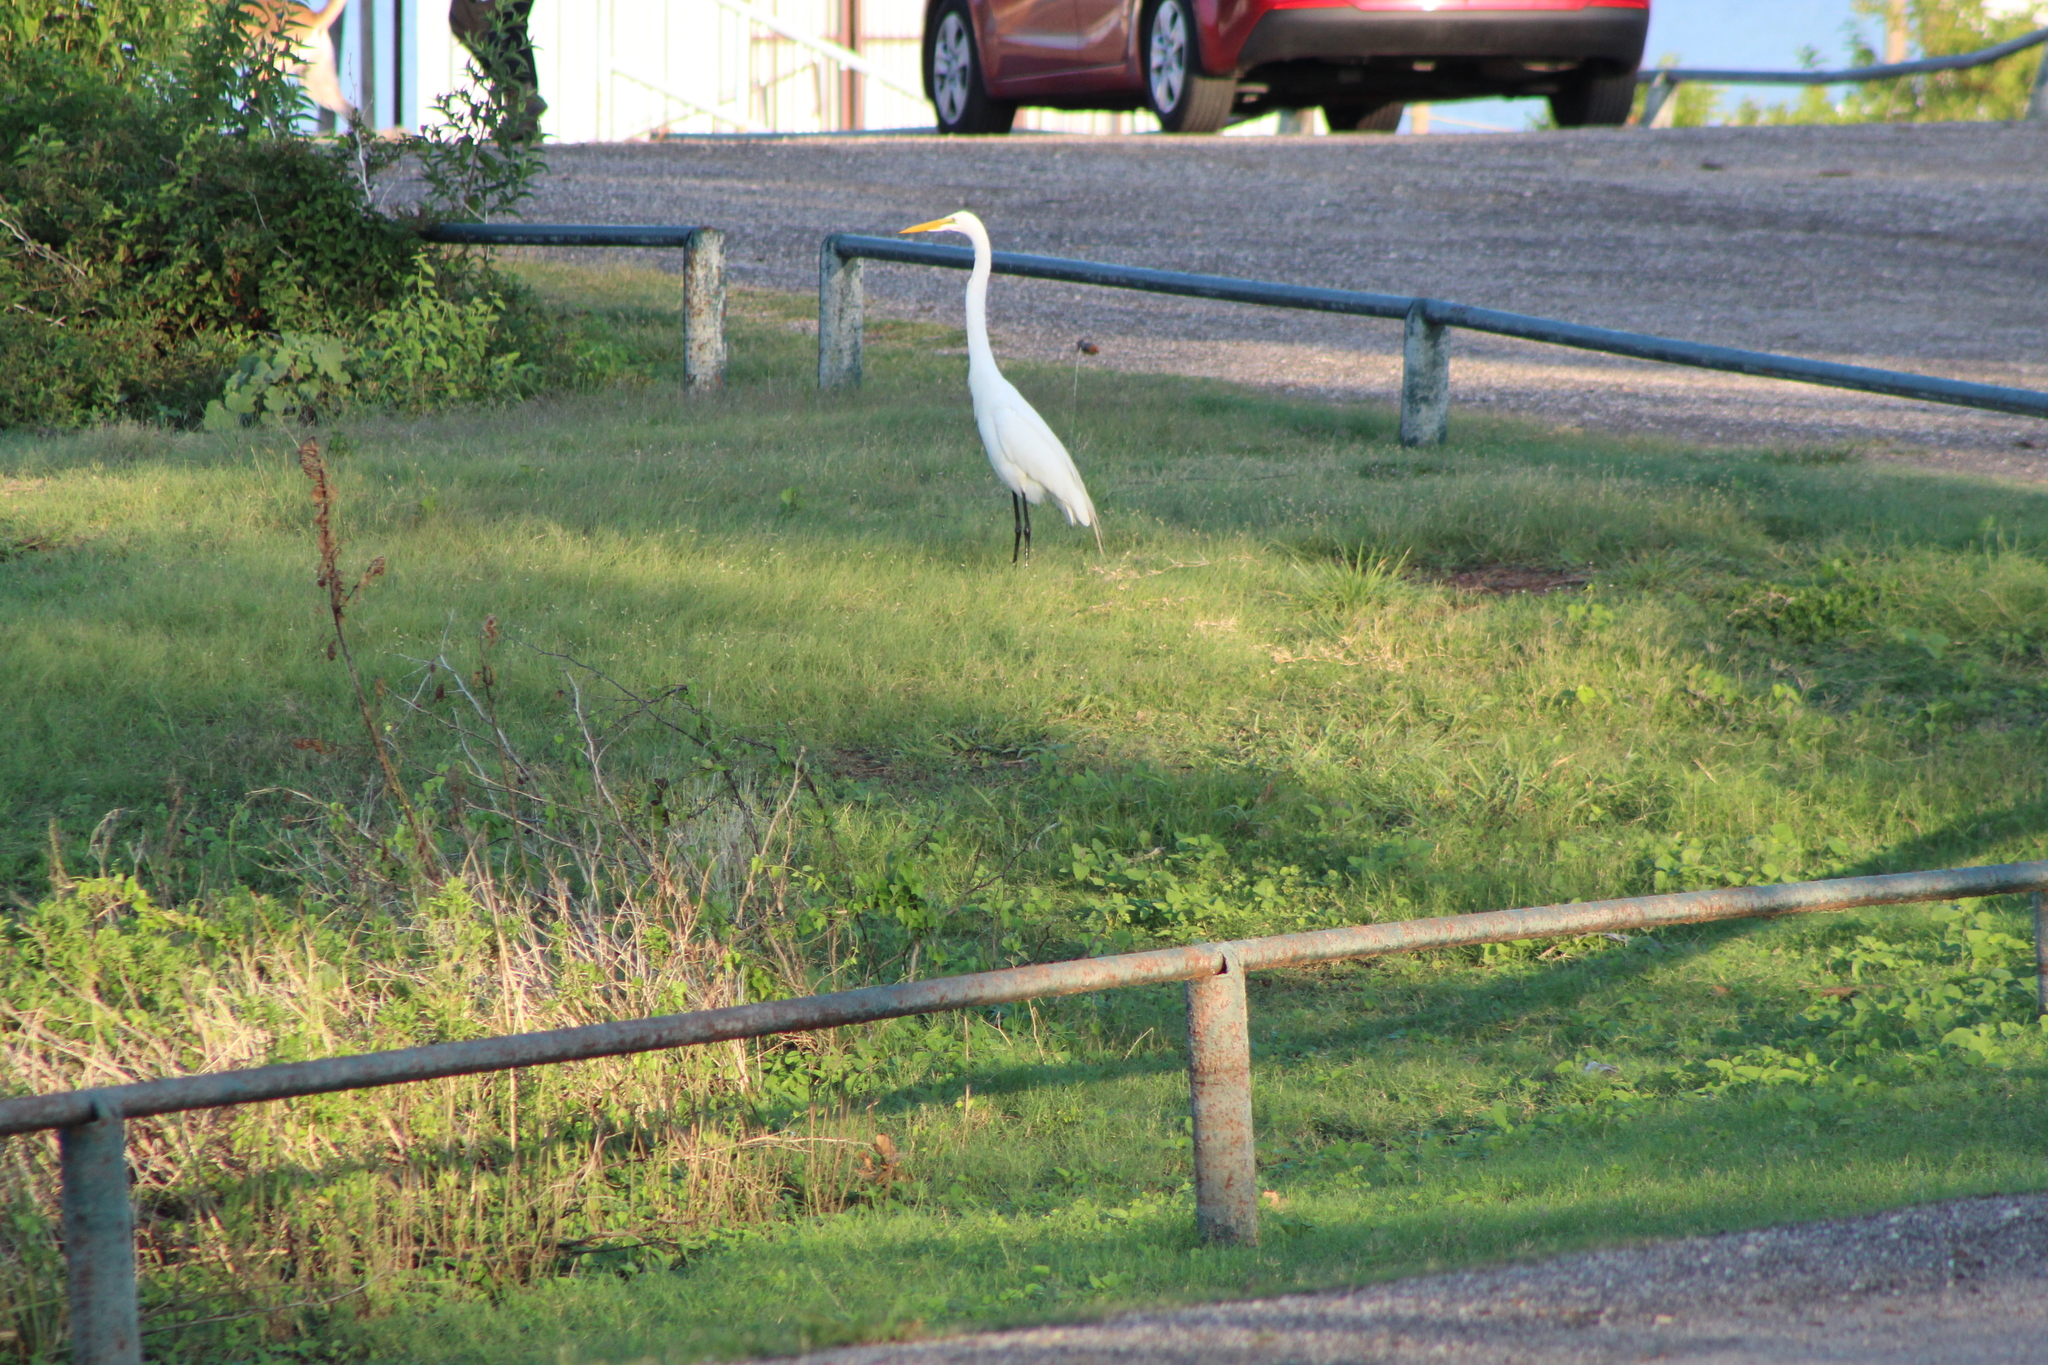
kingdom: Animalia
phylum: Chordata
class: Aves
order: Pelecaniformes
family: Ardeidae
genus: Ardea
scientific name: Ardea alba
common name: Great egret
